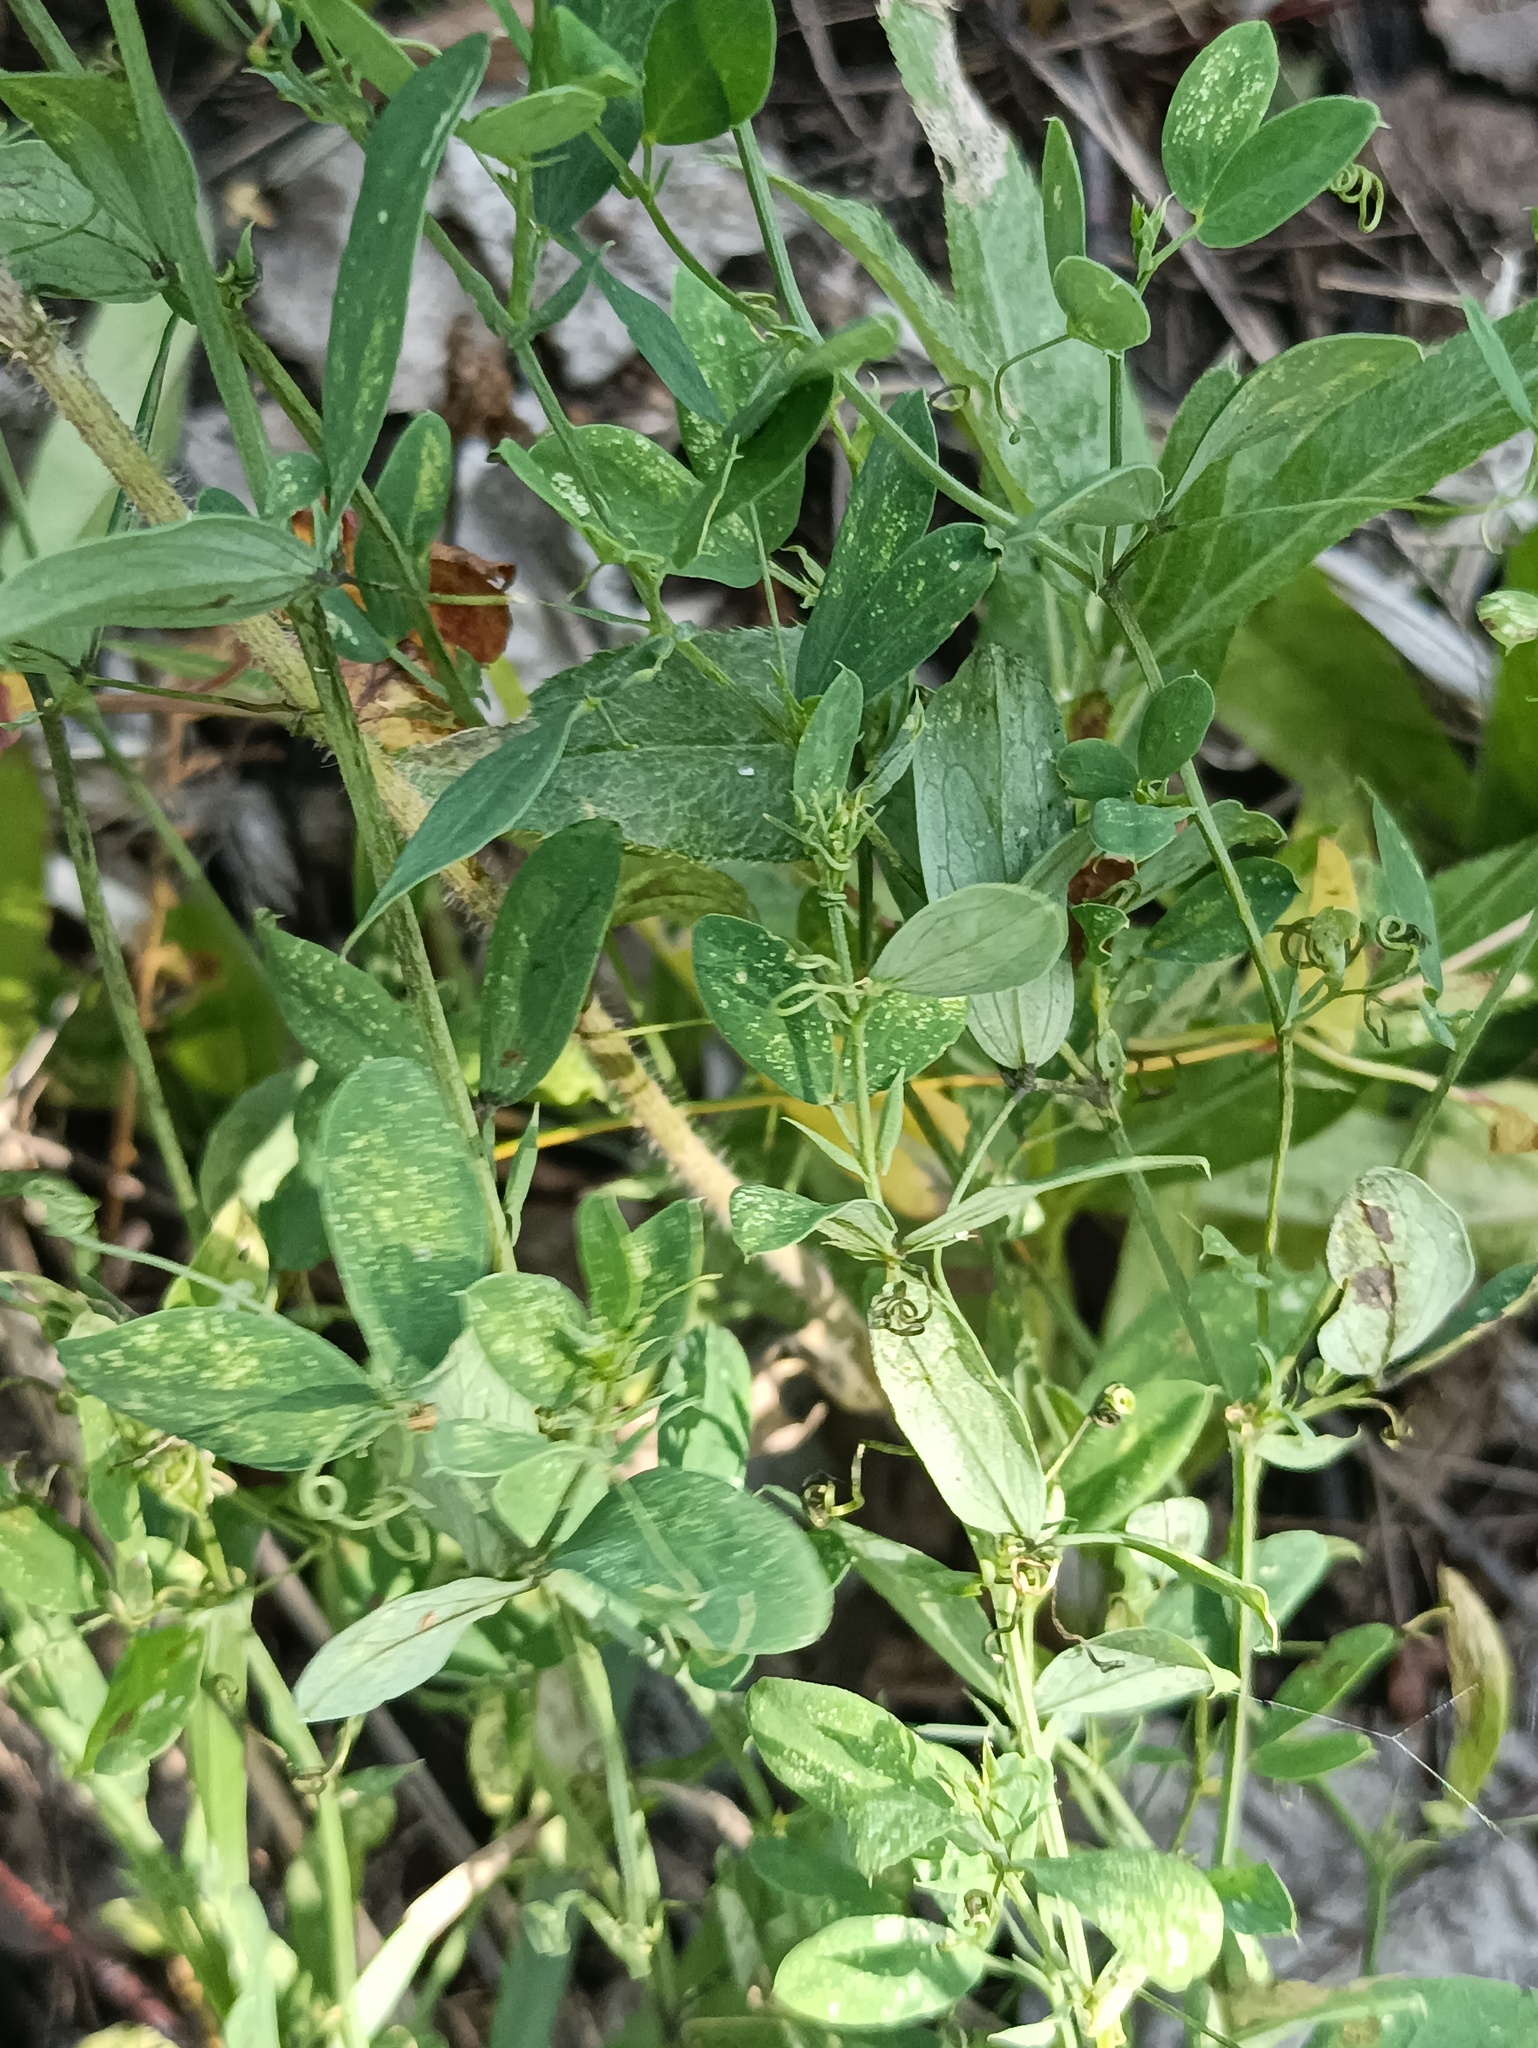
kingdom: Plantae
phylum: Tracheophyta
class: Magnoliopsida
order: Fabales
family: Fabaceae
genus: Lathyrus
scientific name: Lathyrus tuberosus
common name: Tuberous pea
